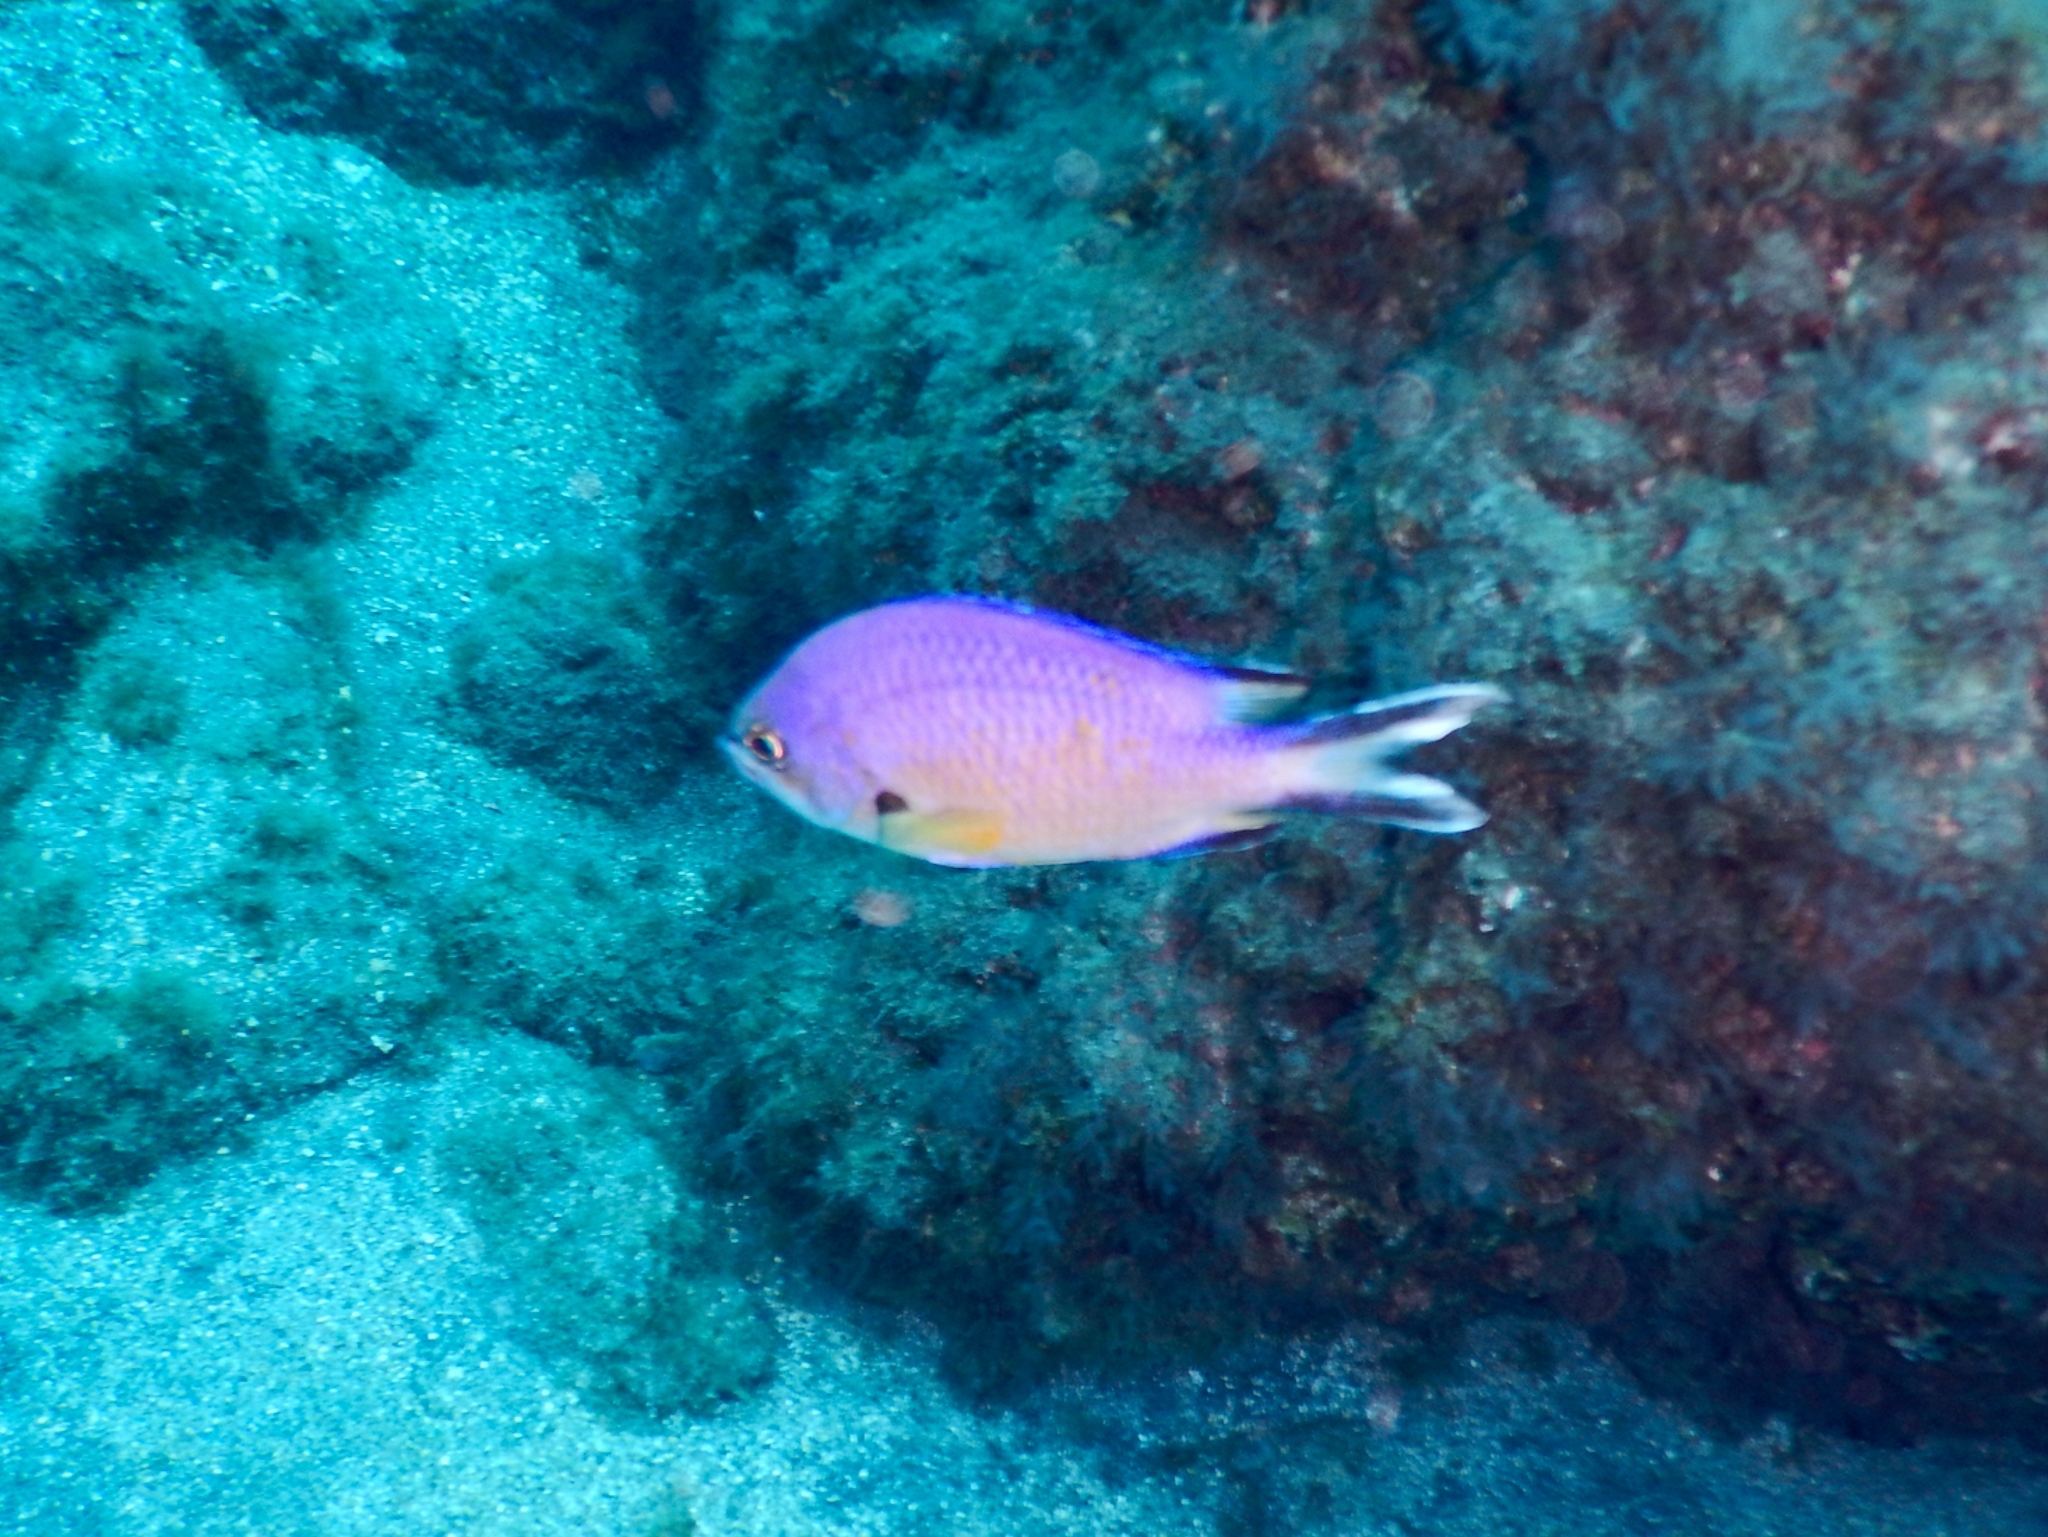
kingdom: Animalia
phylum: Chordata
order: Perciformes
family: Pomacentridae
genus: Chromis
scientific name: Chromis limbata
